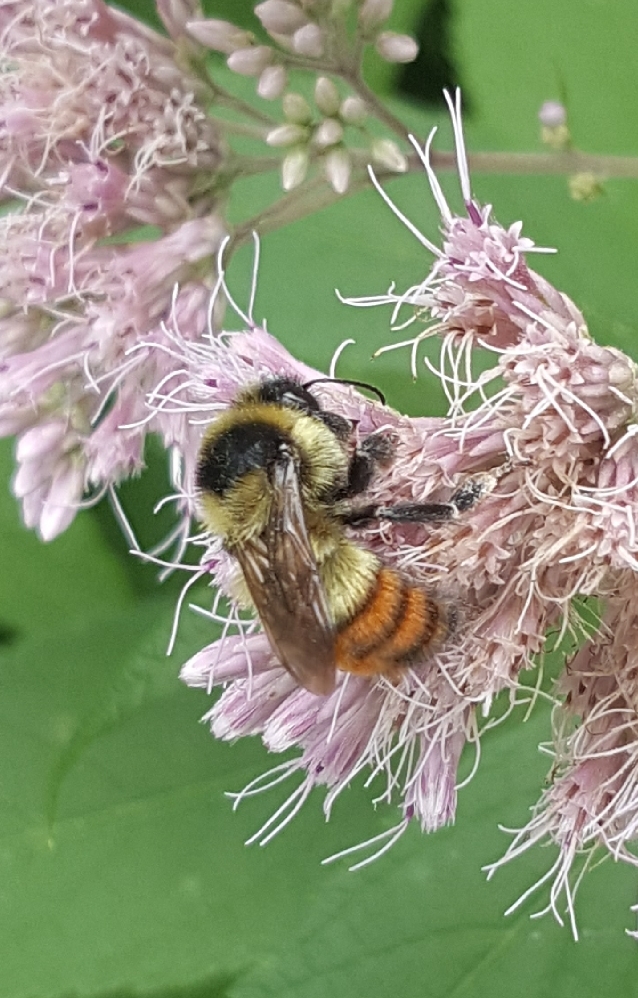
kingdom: Animalia
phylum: Arthropoda
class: Insecta
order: Hymenoptera
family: Apidae
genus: Bombus
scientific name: Bombus rufocinctus
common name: Red-belted bumble bee
